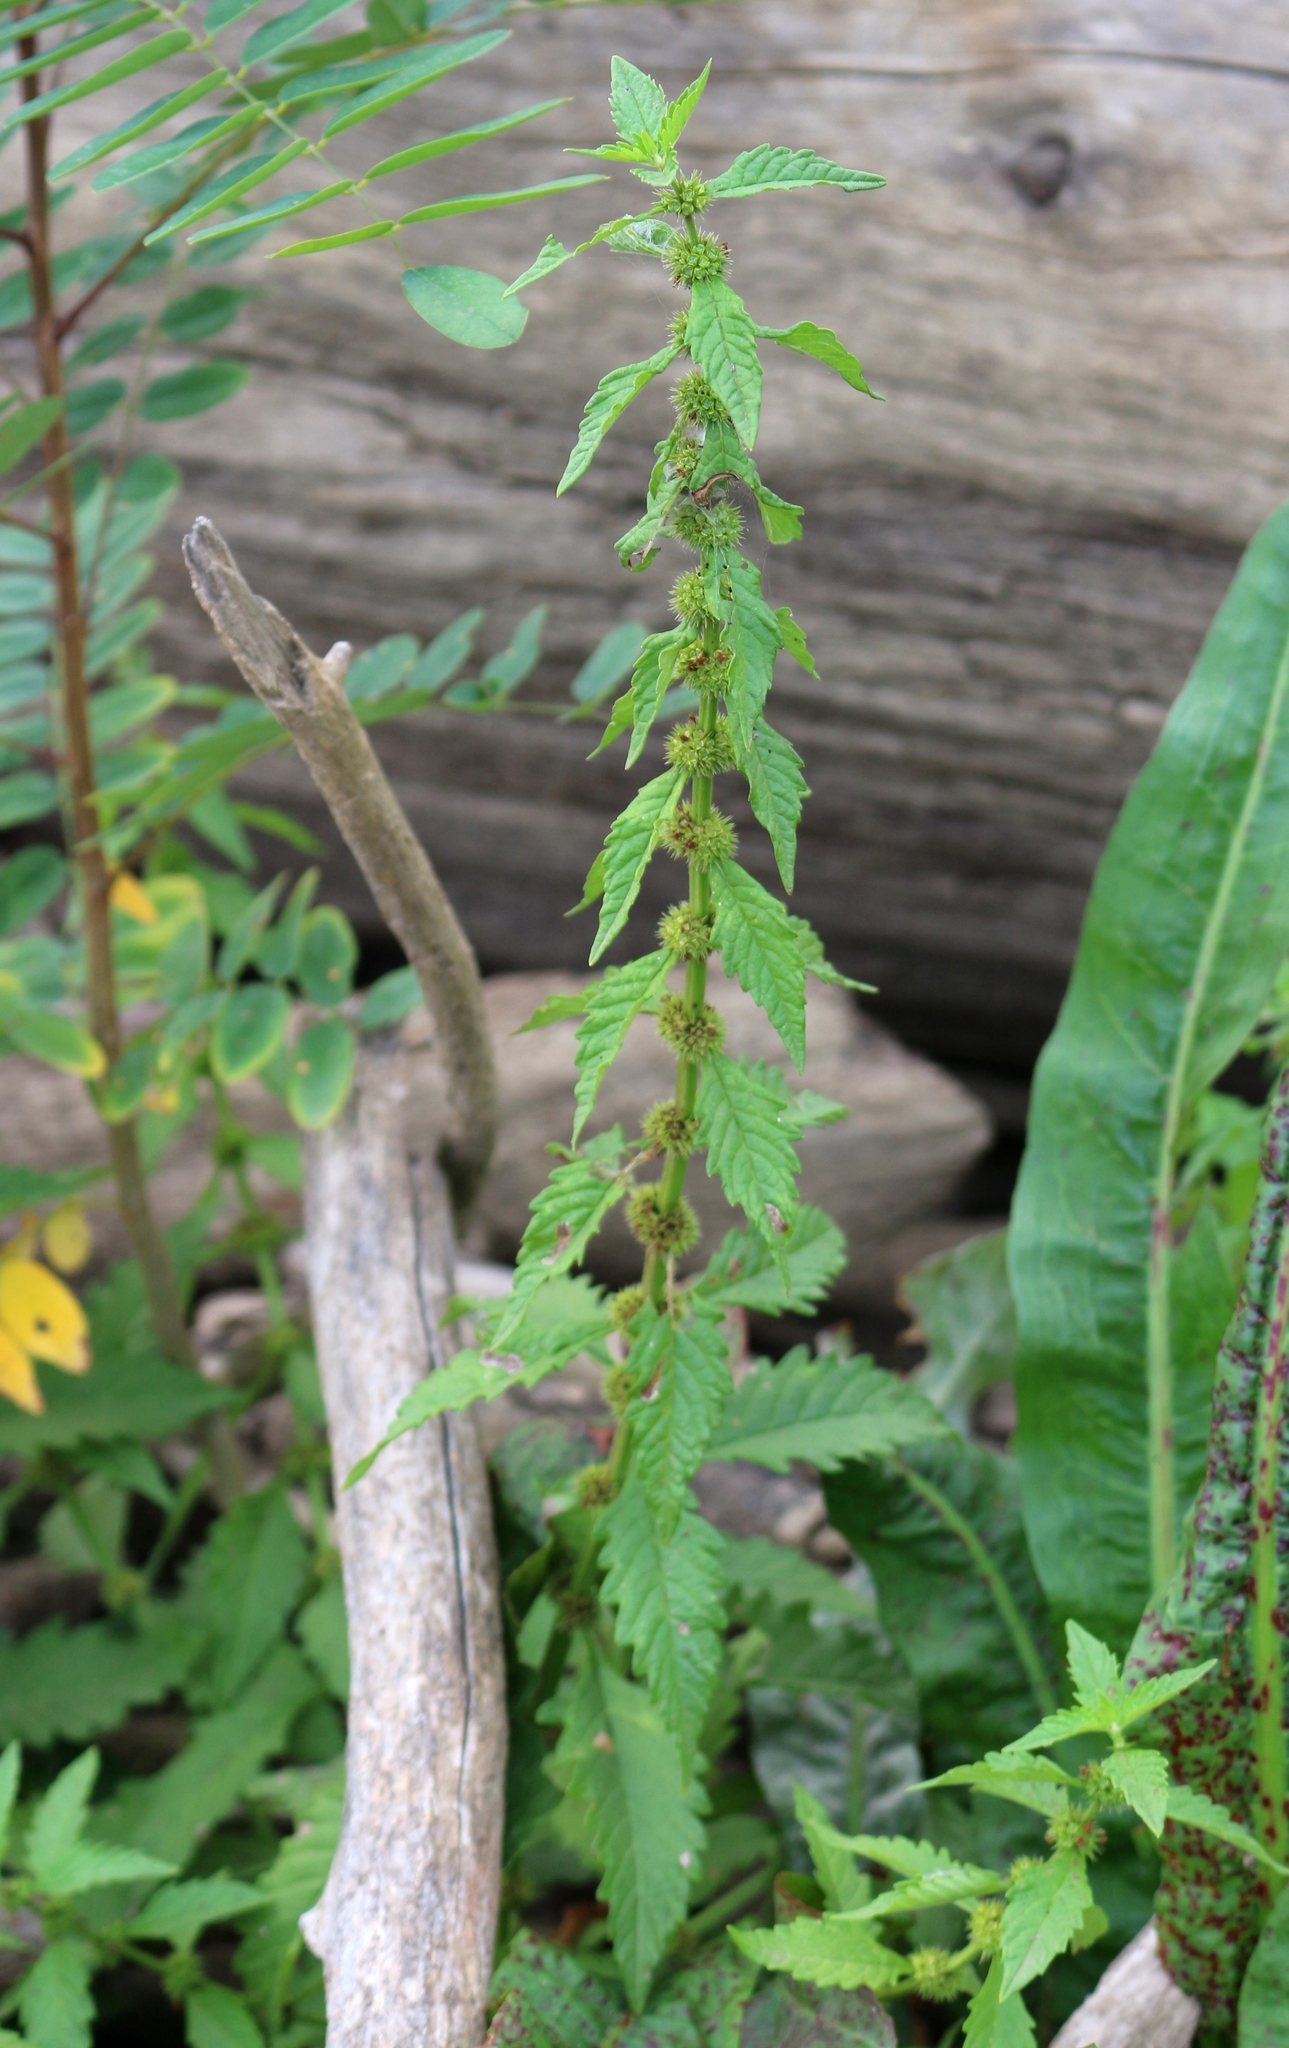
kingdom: Plantae
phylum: Tracheophyta
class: Magnoliopsida
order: Lamiales
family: Lamiaceae
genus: Lycopus
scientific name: Lycopus europaeus
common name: European bugleweed
